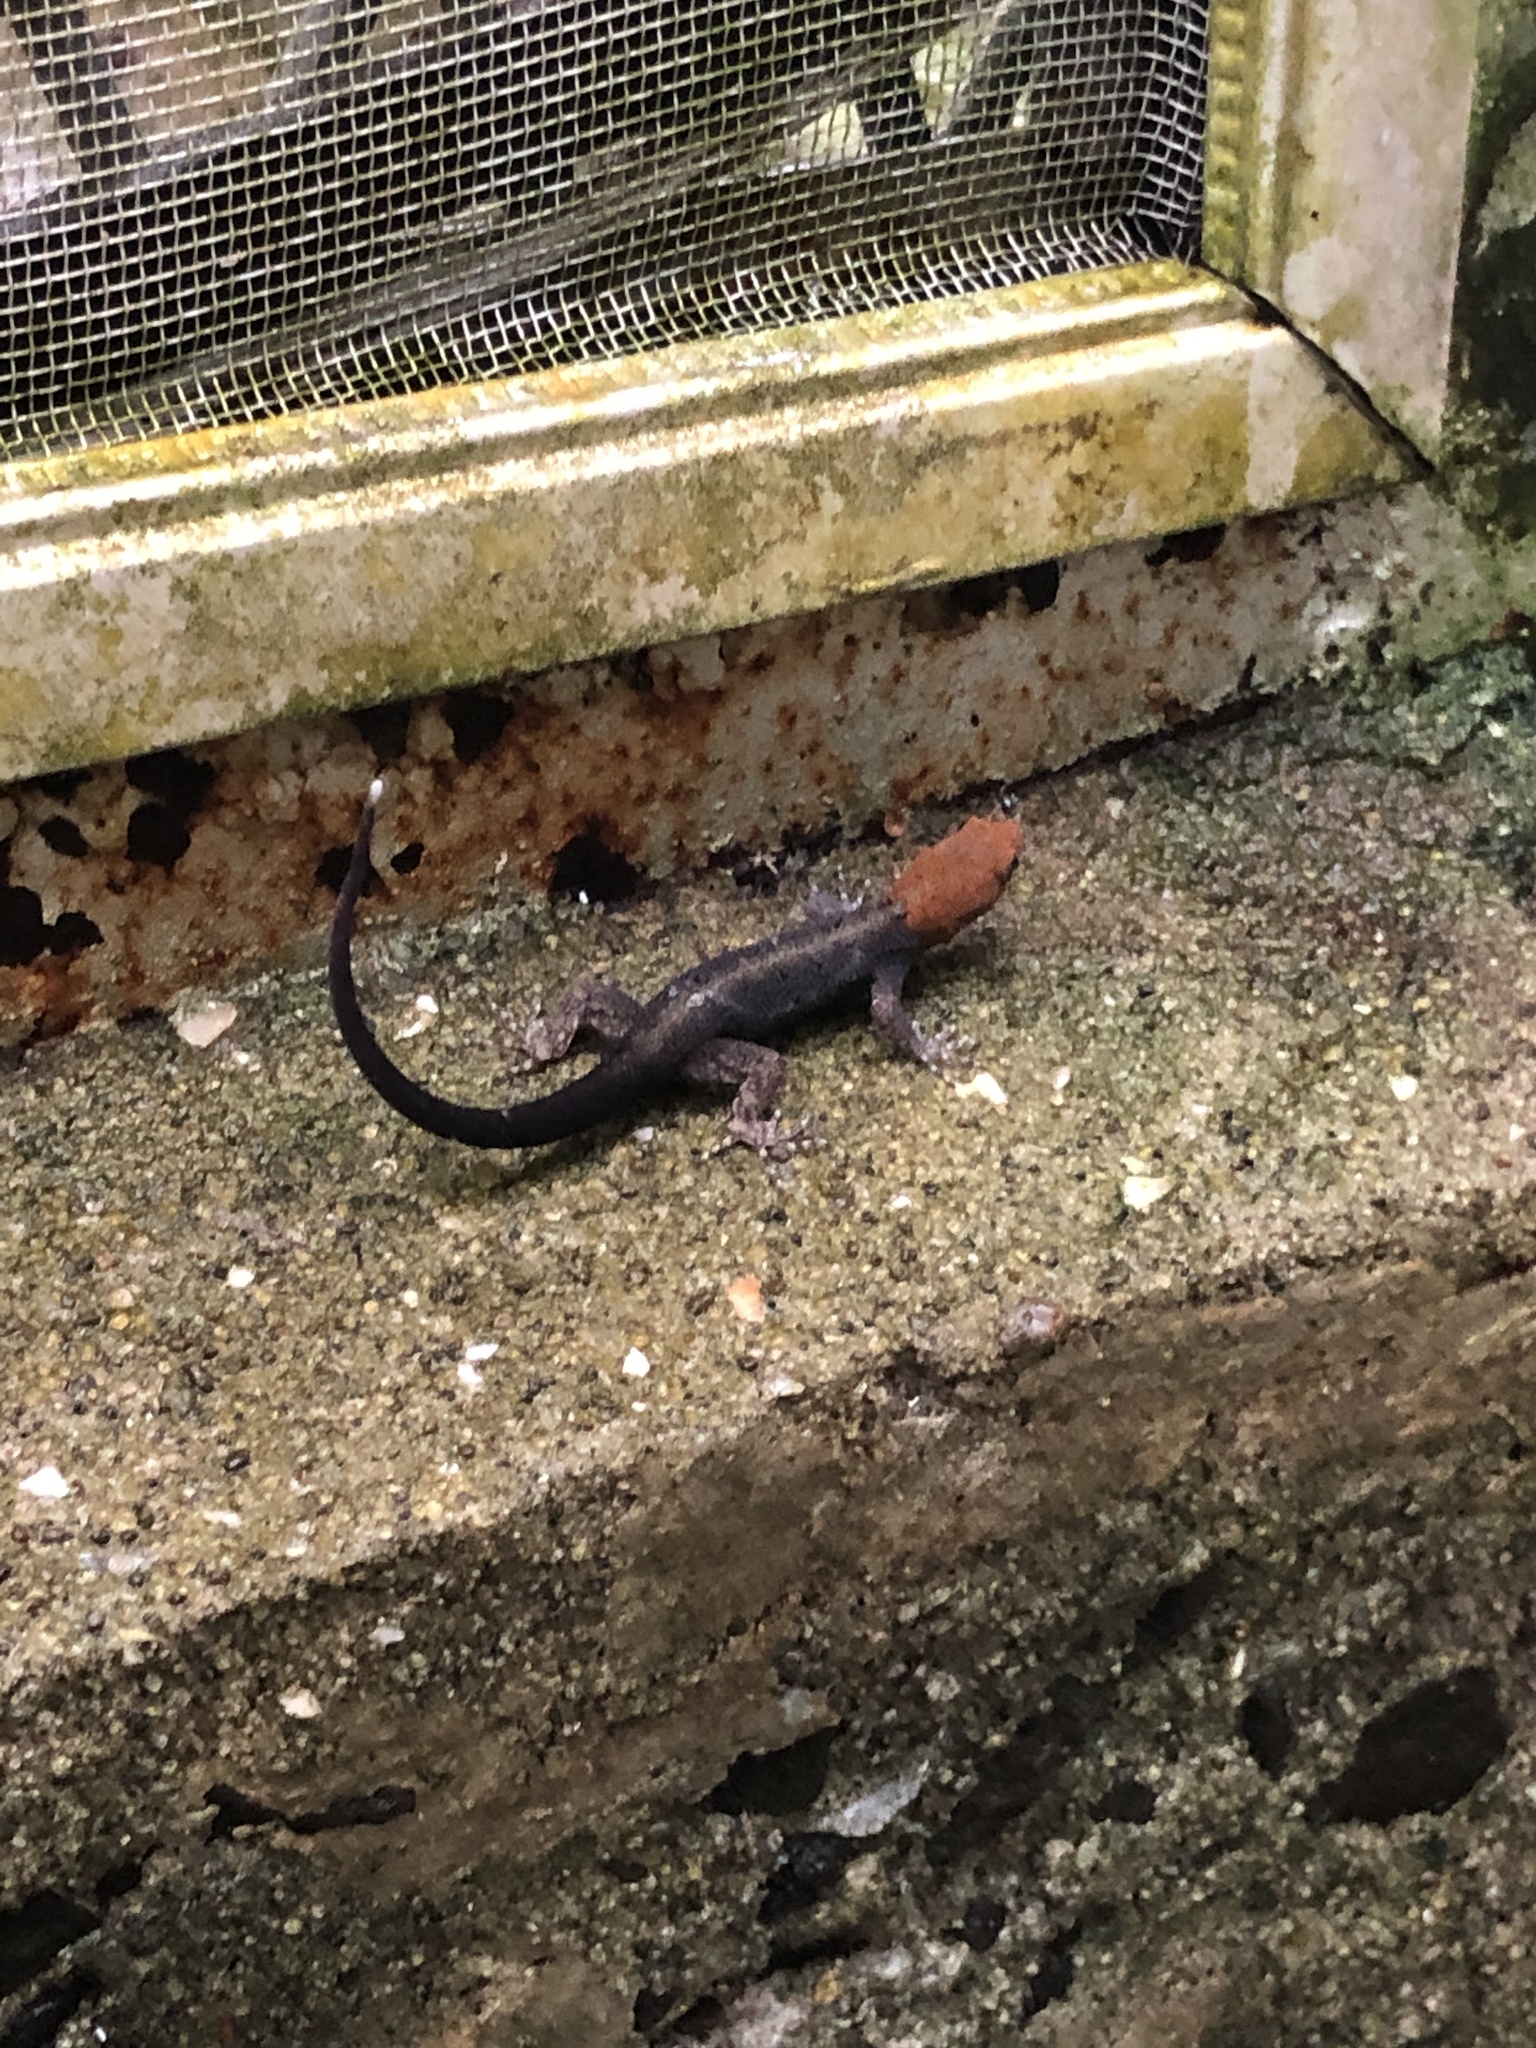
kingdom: Animalia
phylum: Chordata
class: Squamata
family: Sphaerodactylidae
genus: Gonatodes
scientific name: Gonatodes albogularis
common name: Yellow-headed gecko
